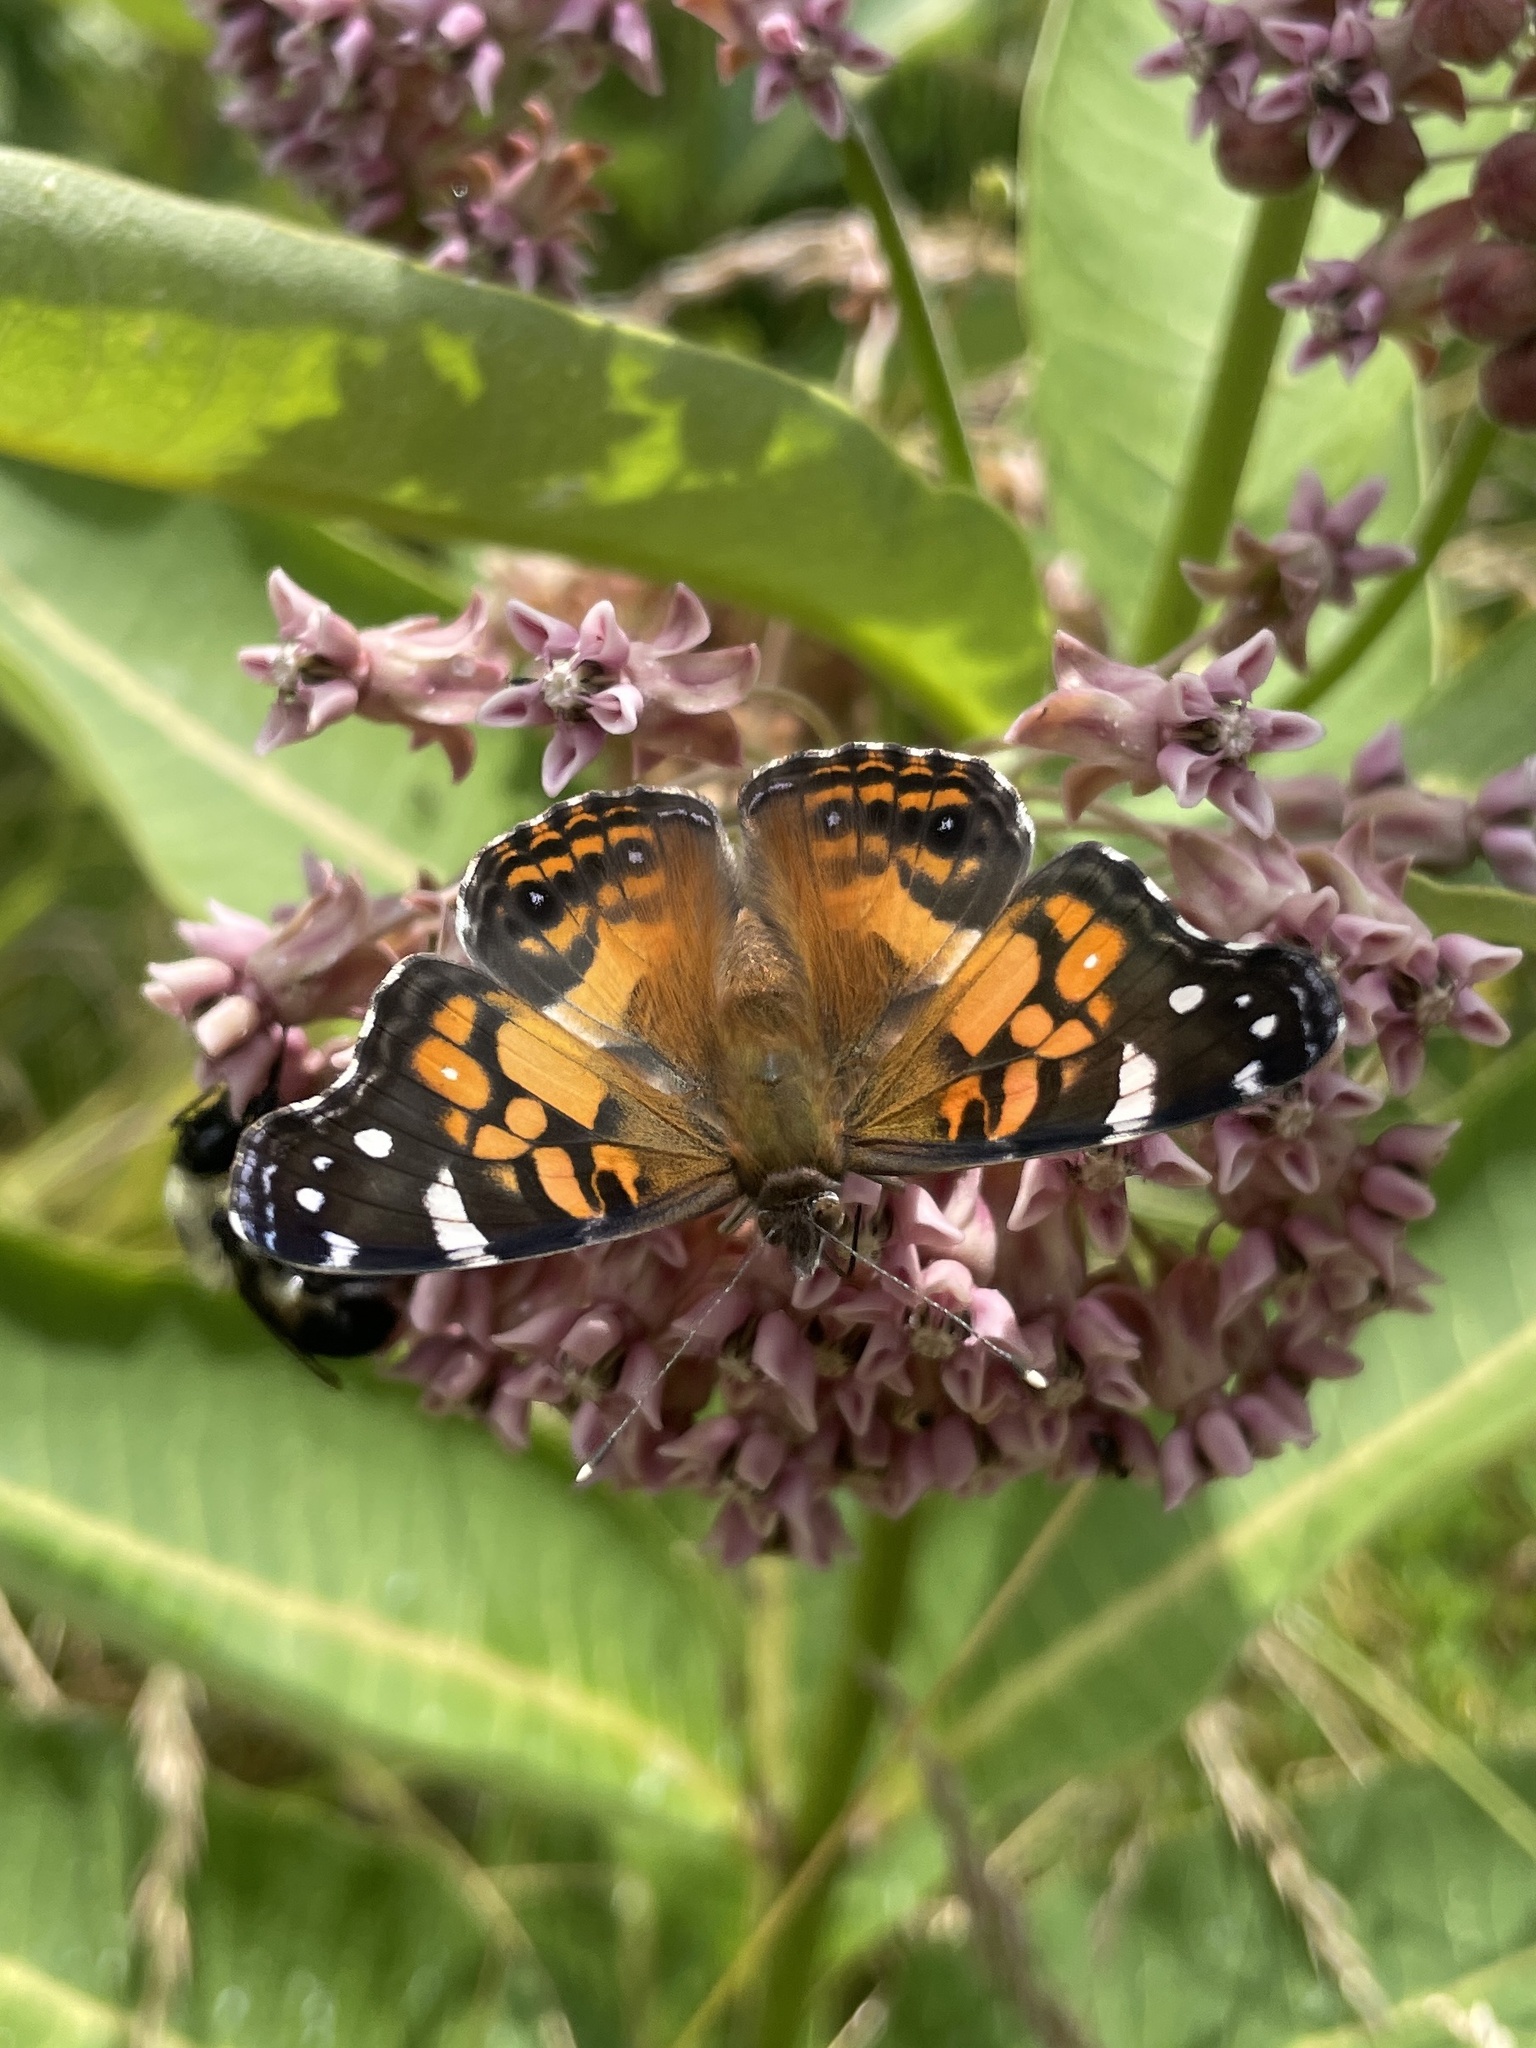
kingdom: Animalia
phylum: Arthropoda
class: Insecta
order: Lepidoptera
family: Nymphalidae
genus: Vanessa
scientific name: Vanessa virginiensis
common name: American lady
